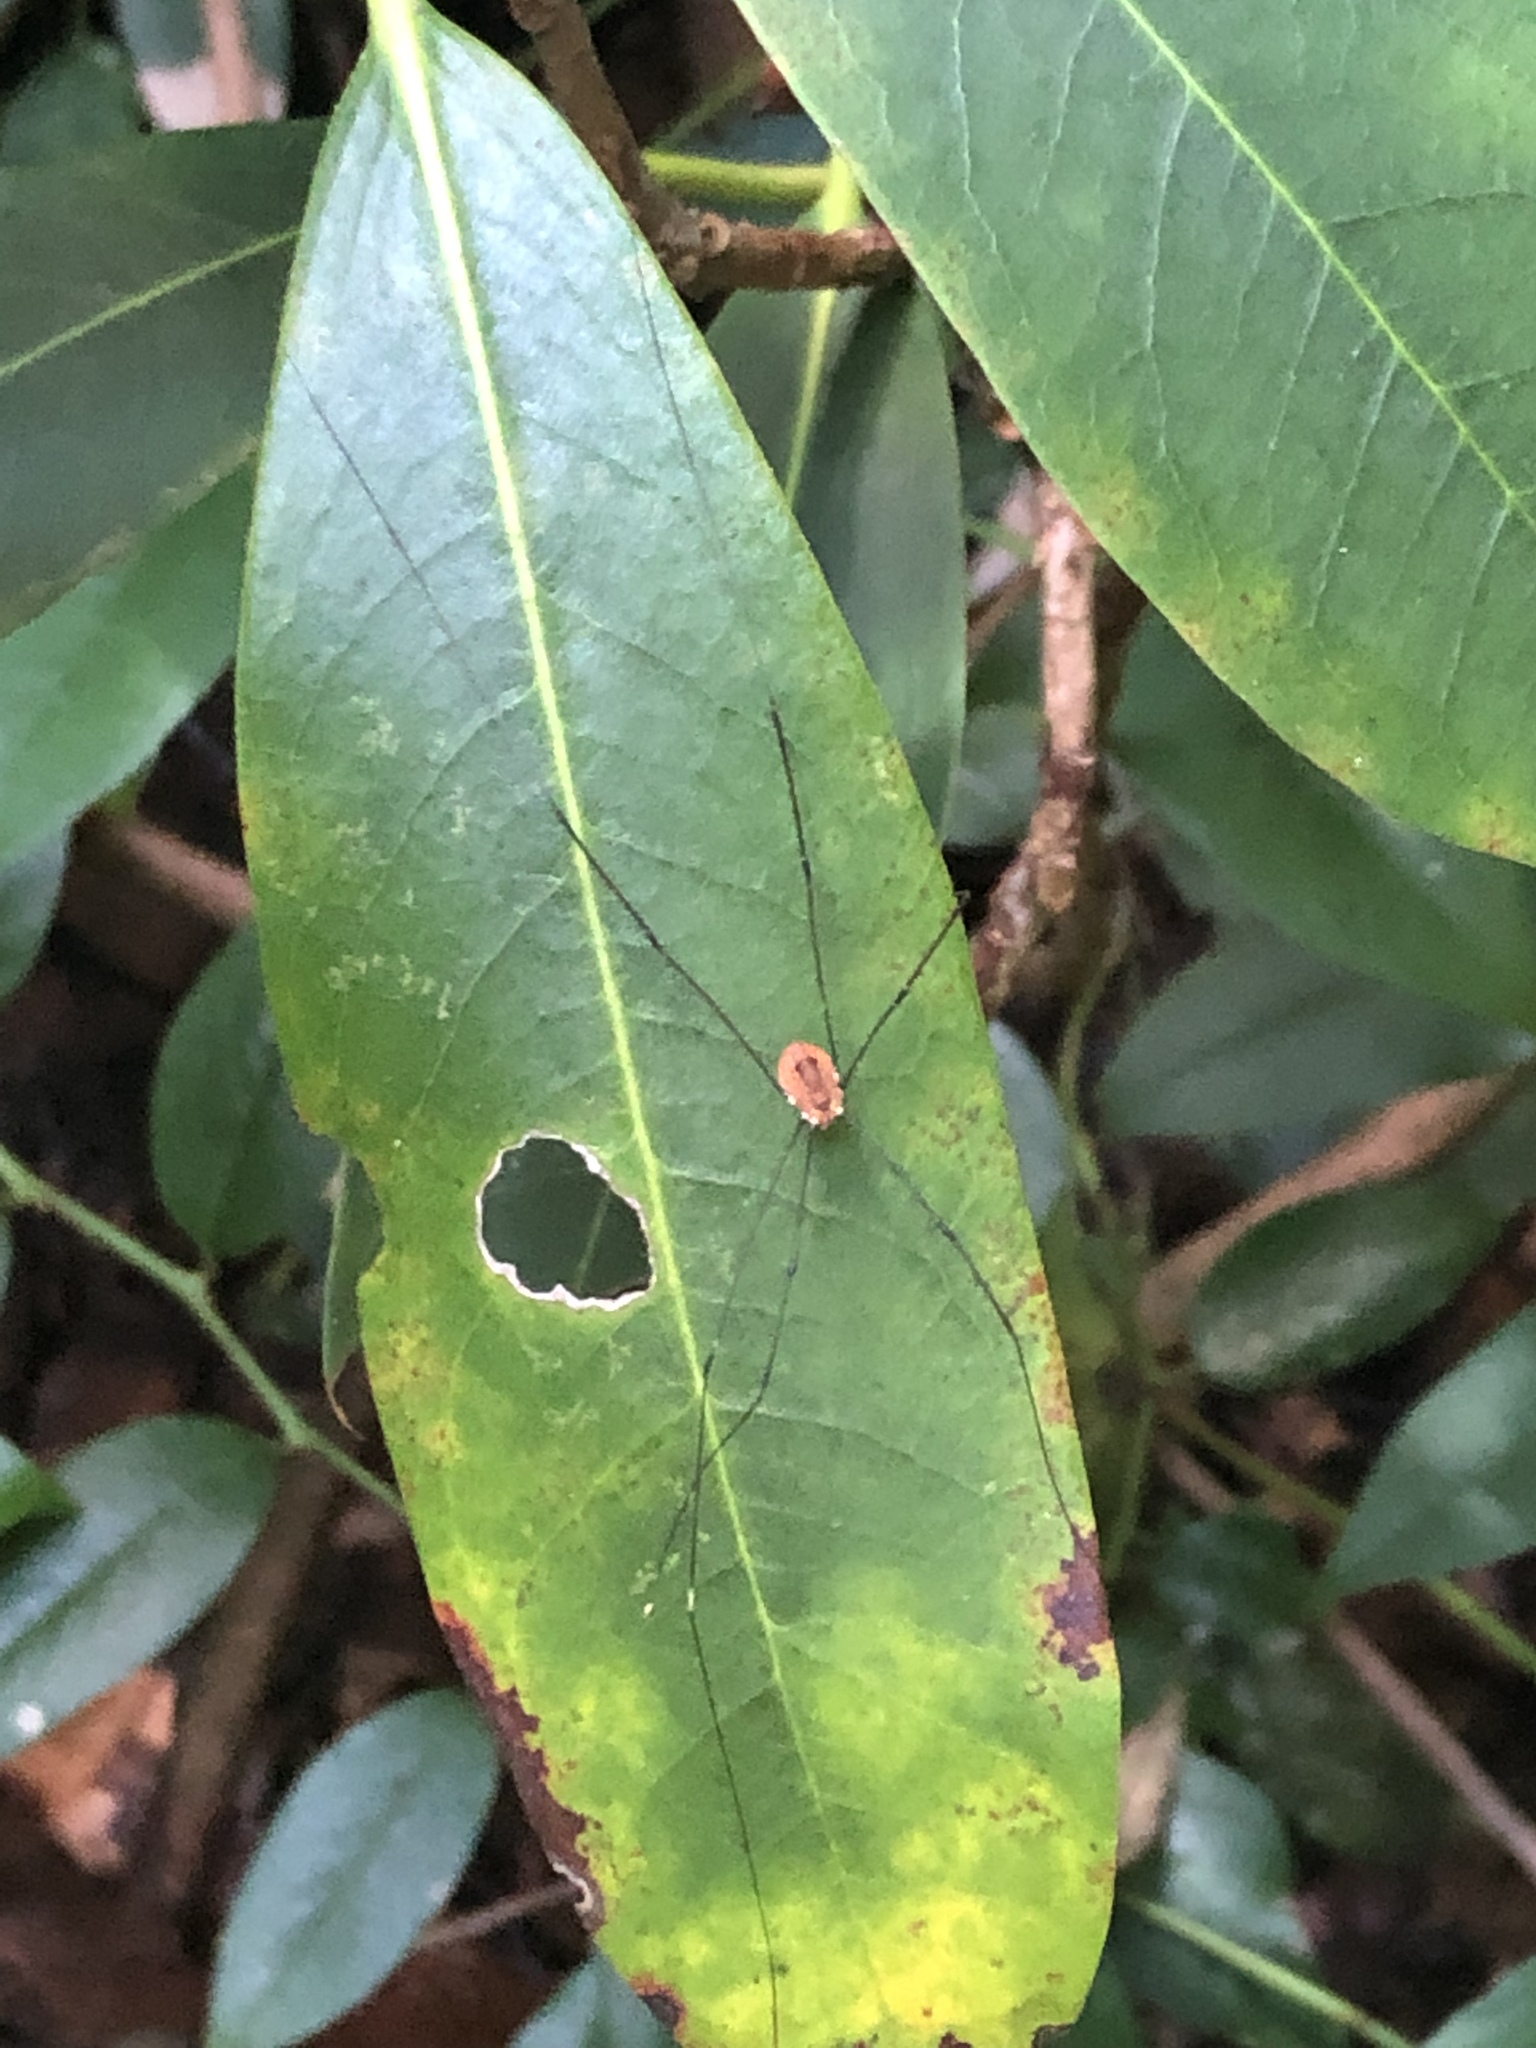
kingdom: Animalia
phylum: Arthropoda
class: Arachnida
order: Opiliones
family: Sclerosomatidae
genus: Leiobunum
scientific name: Leiobunum aldrichi
